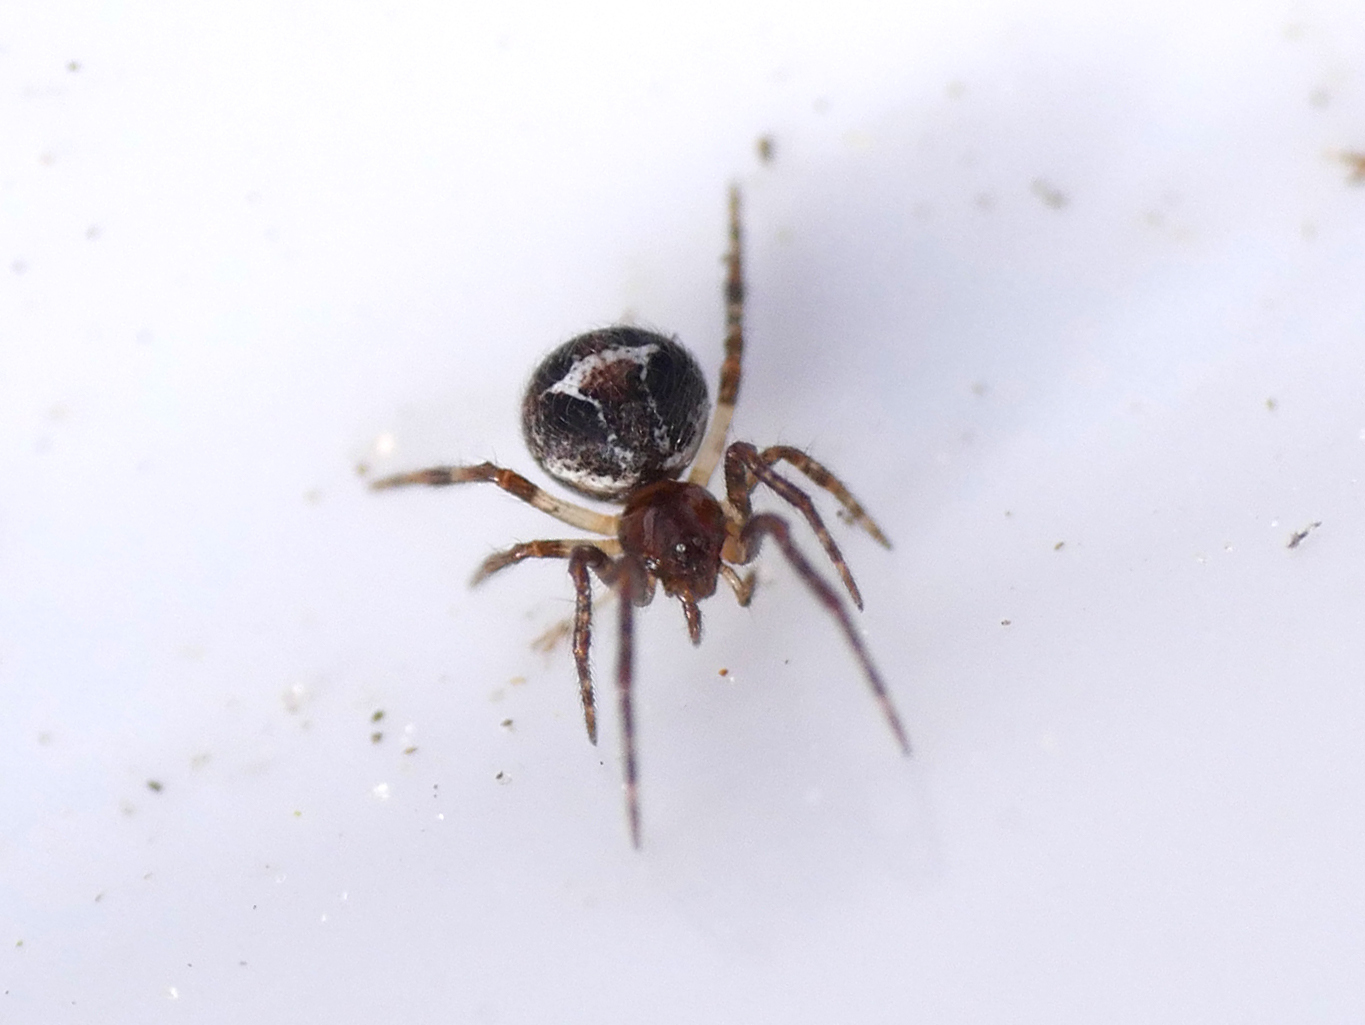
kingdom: Animalia
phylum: Arthropoda
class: Arachnida
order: Araneae
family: Theridiidae
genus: Simitidion
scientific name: Simitidion simile
